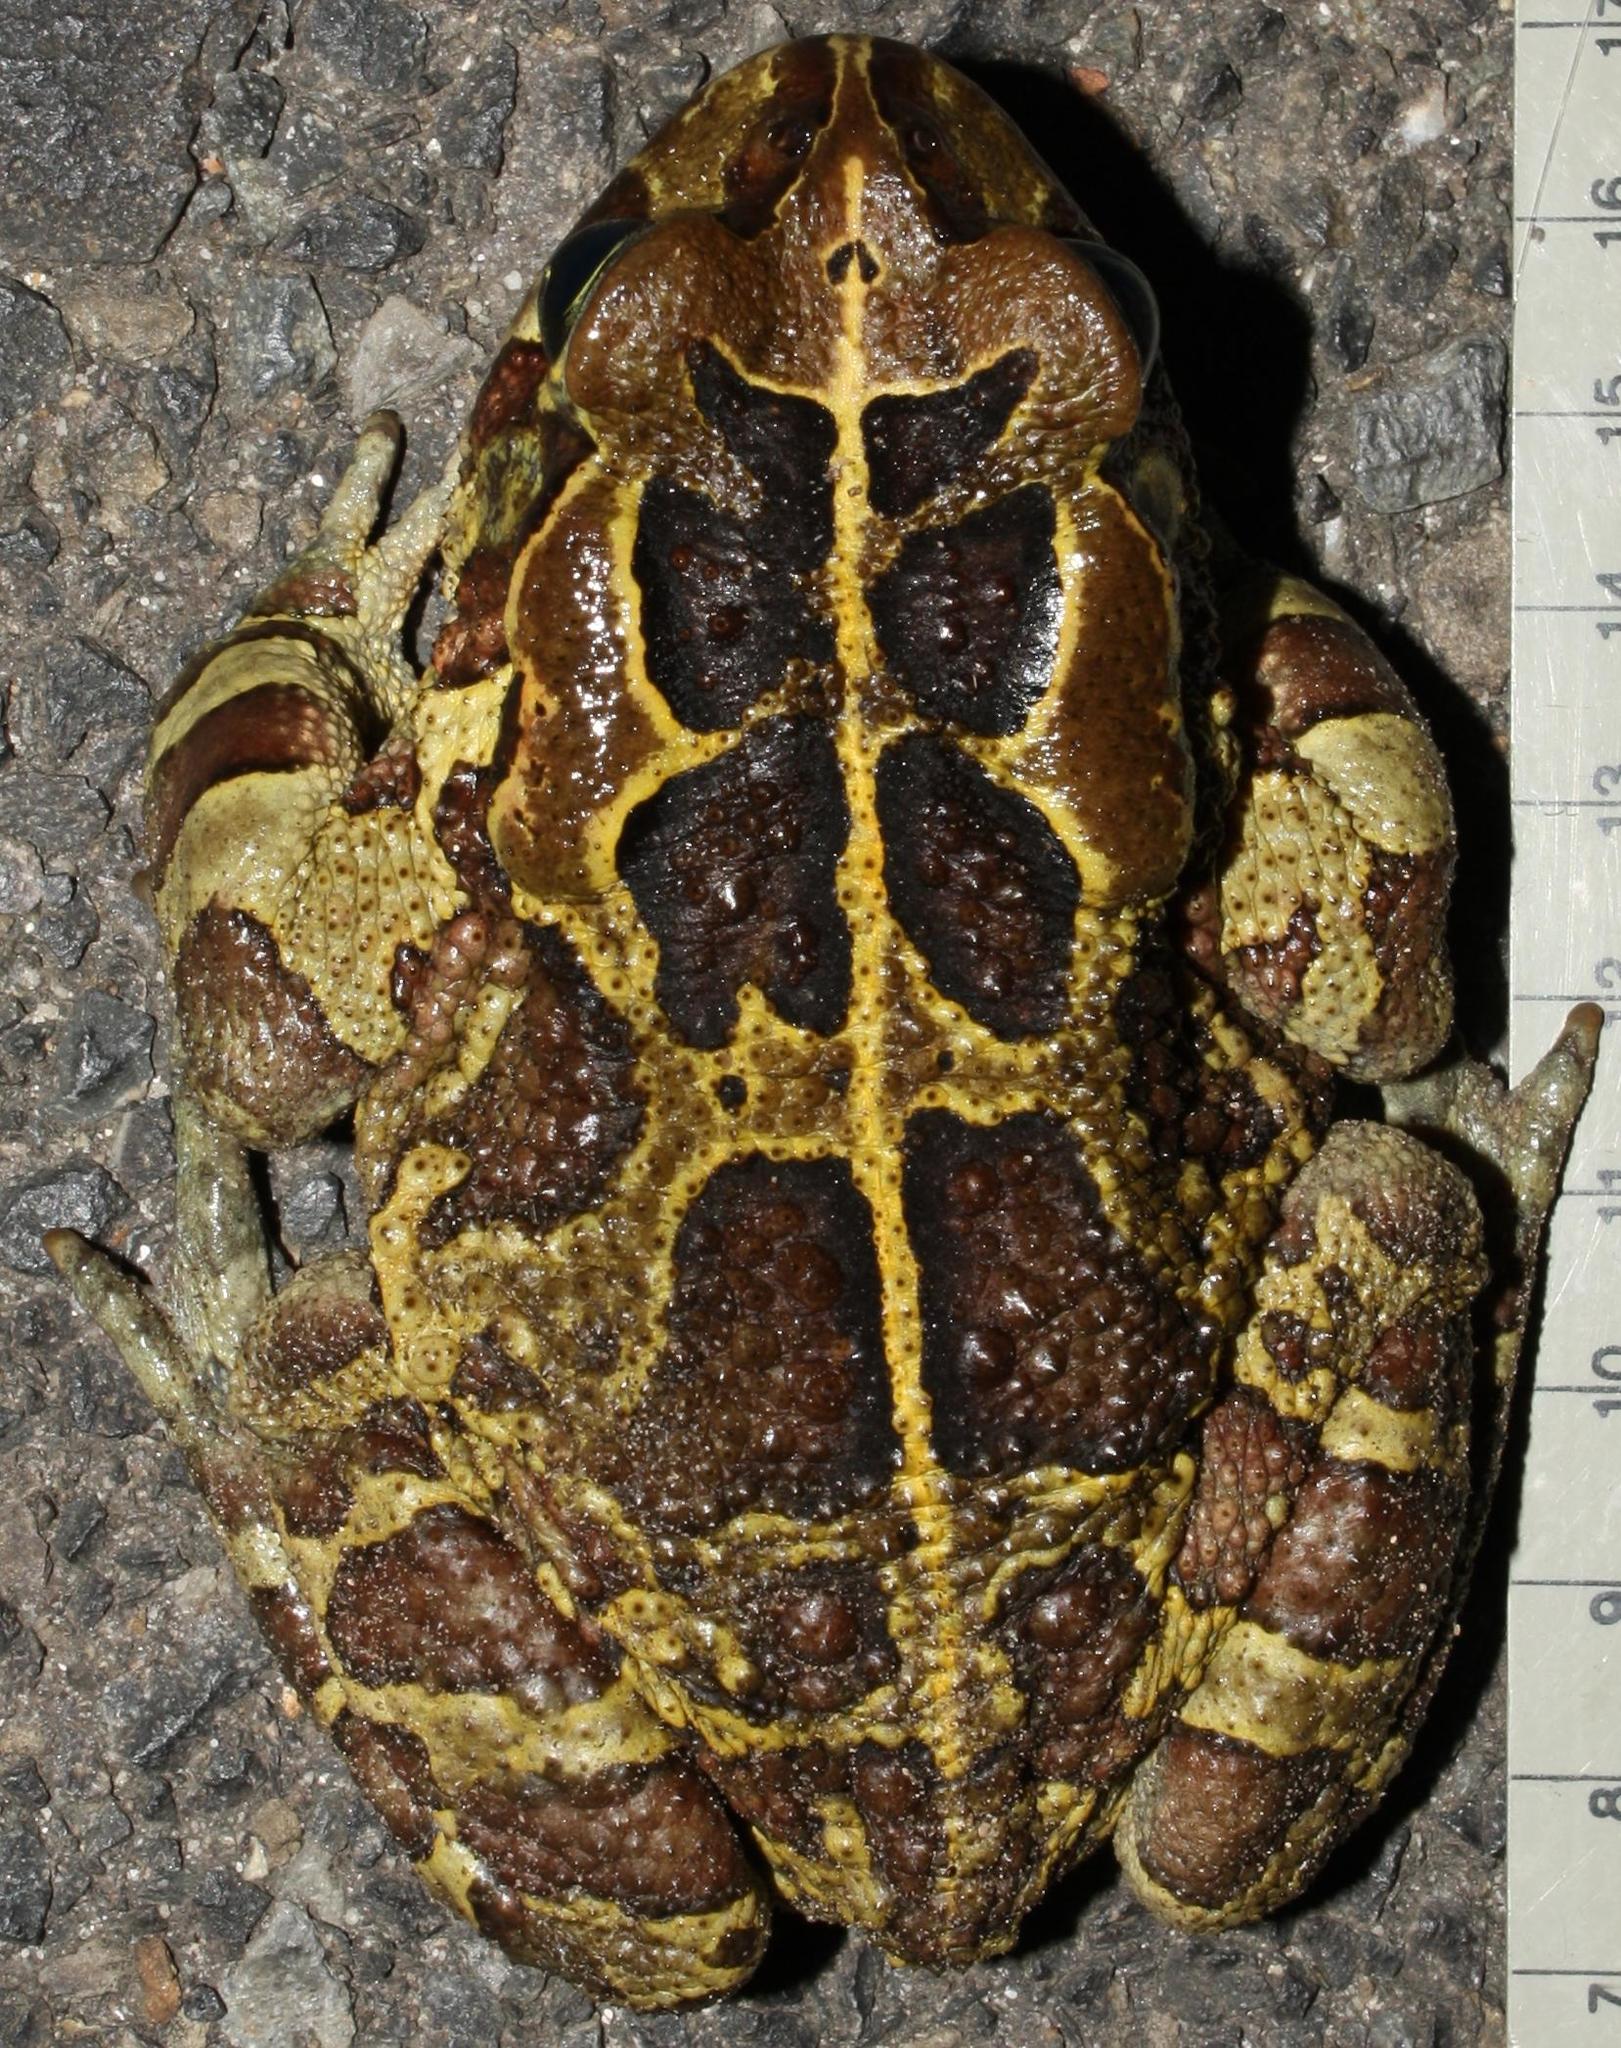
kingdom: Animalia
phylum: Chordata
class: Amphibia
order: Anura
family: Bufonidae
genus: Sclerophrys
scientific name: Sclerophrys pantherina
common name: Panther toad
